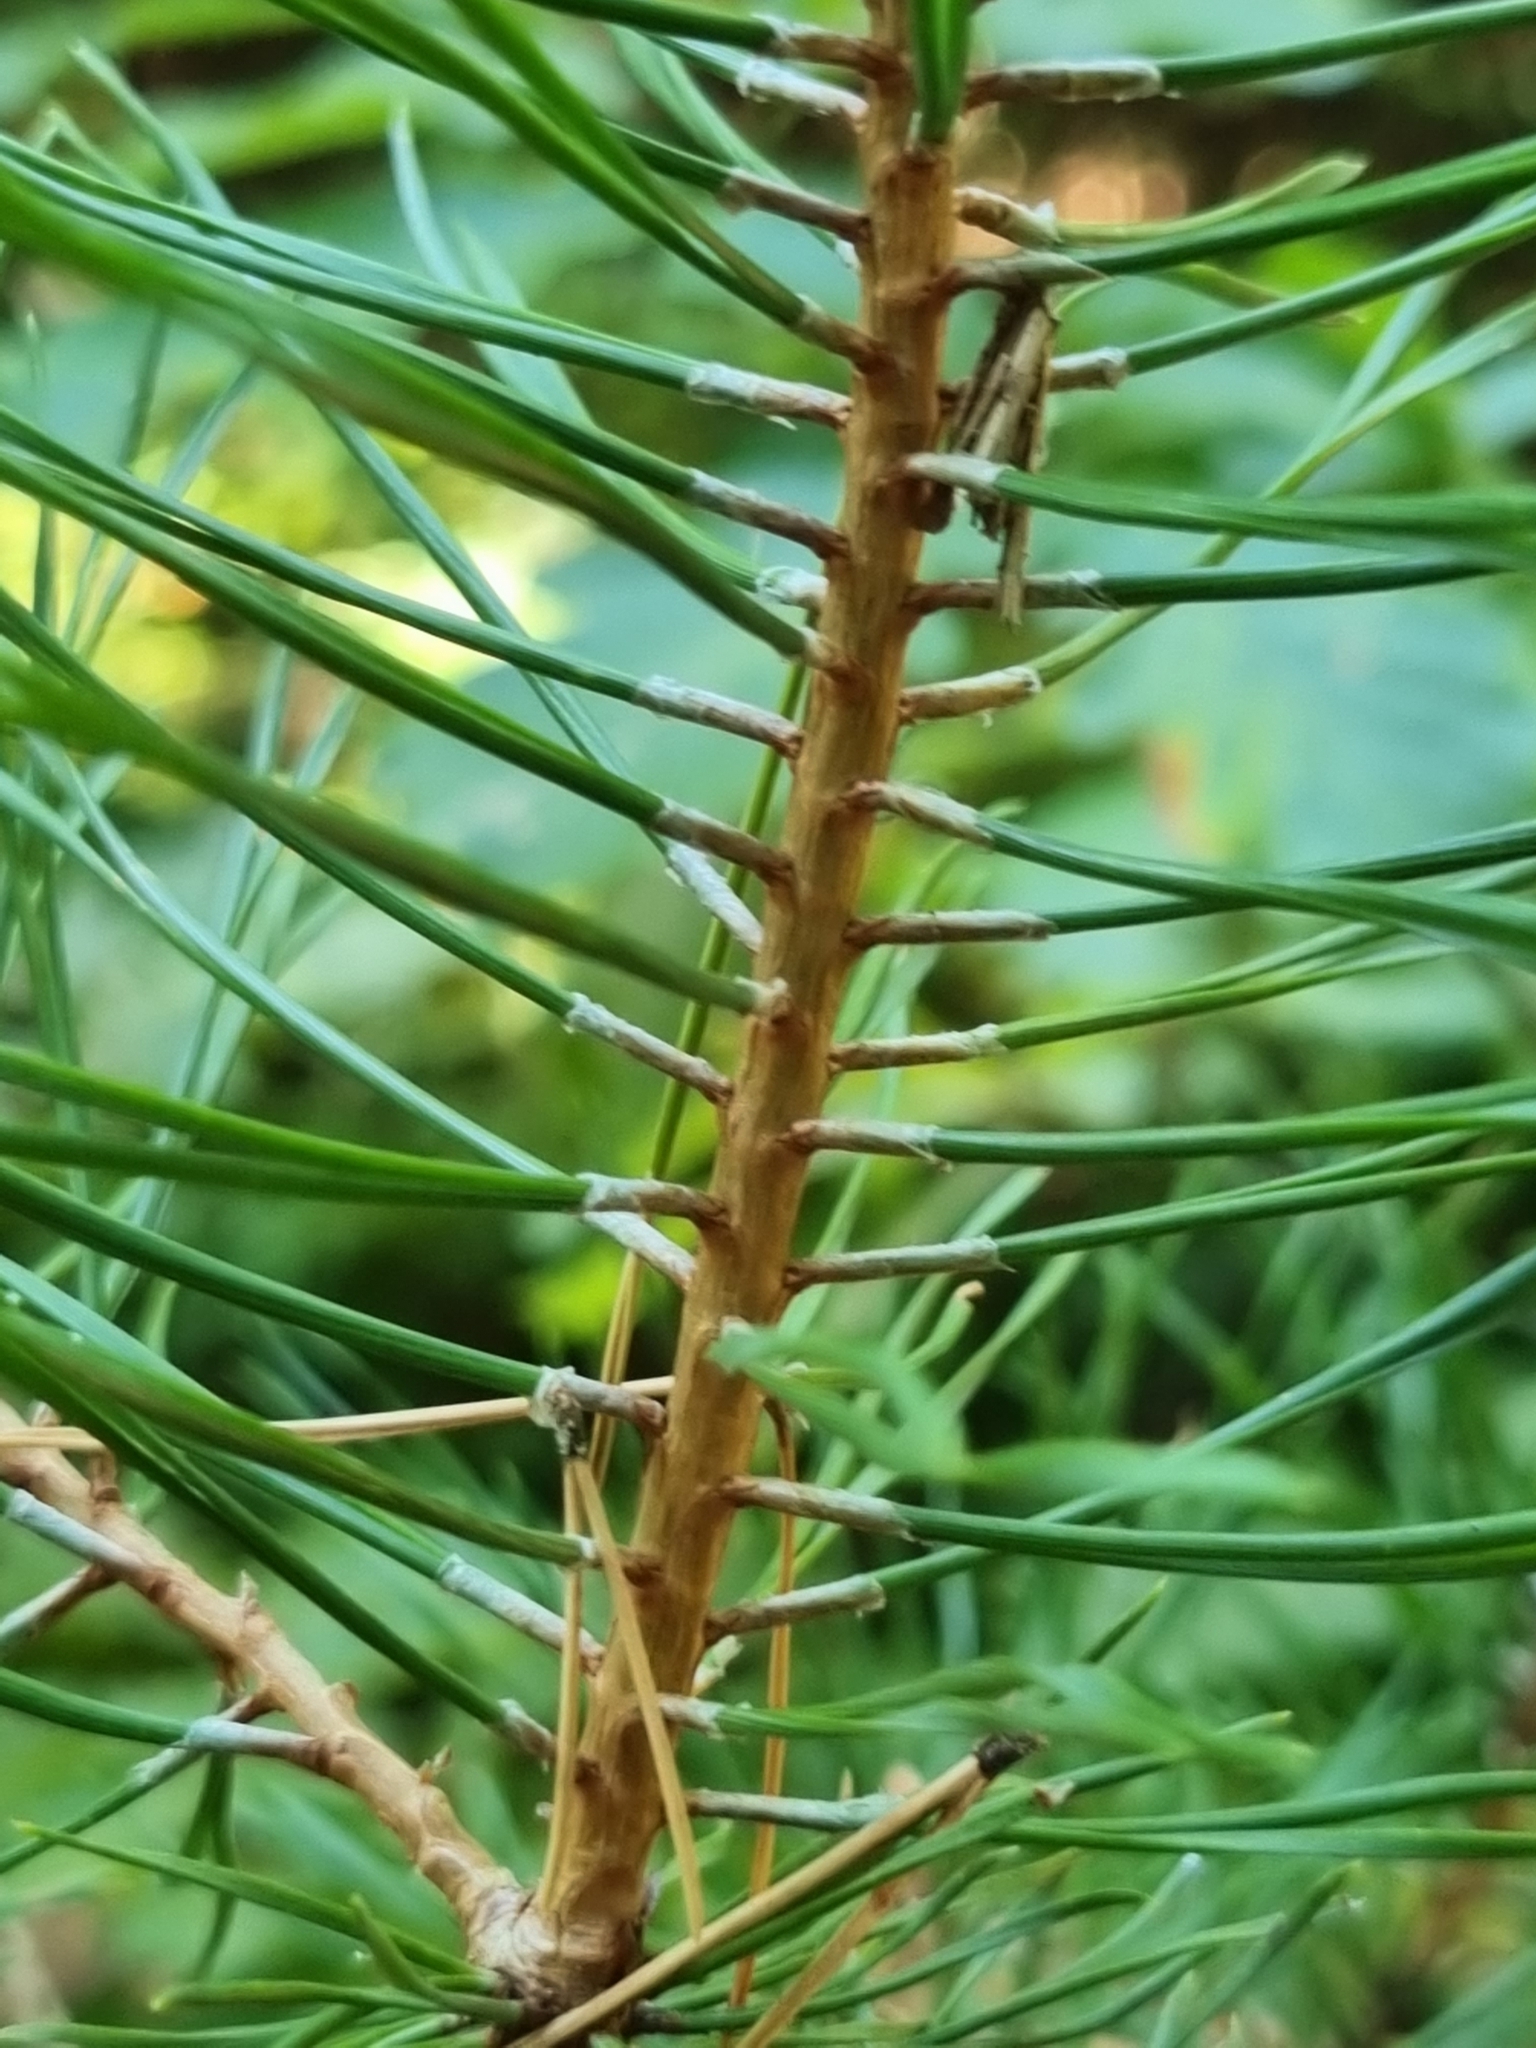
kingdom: Plantae
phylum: Tracheophyta
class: Pinopsida
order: Pinales
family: Pinaceae
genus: Pinus
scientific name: Pinus sylvestris
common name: Scots pine
